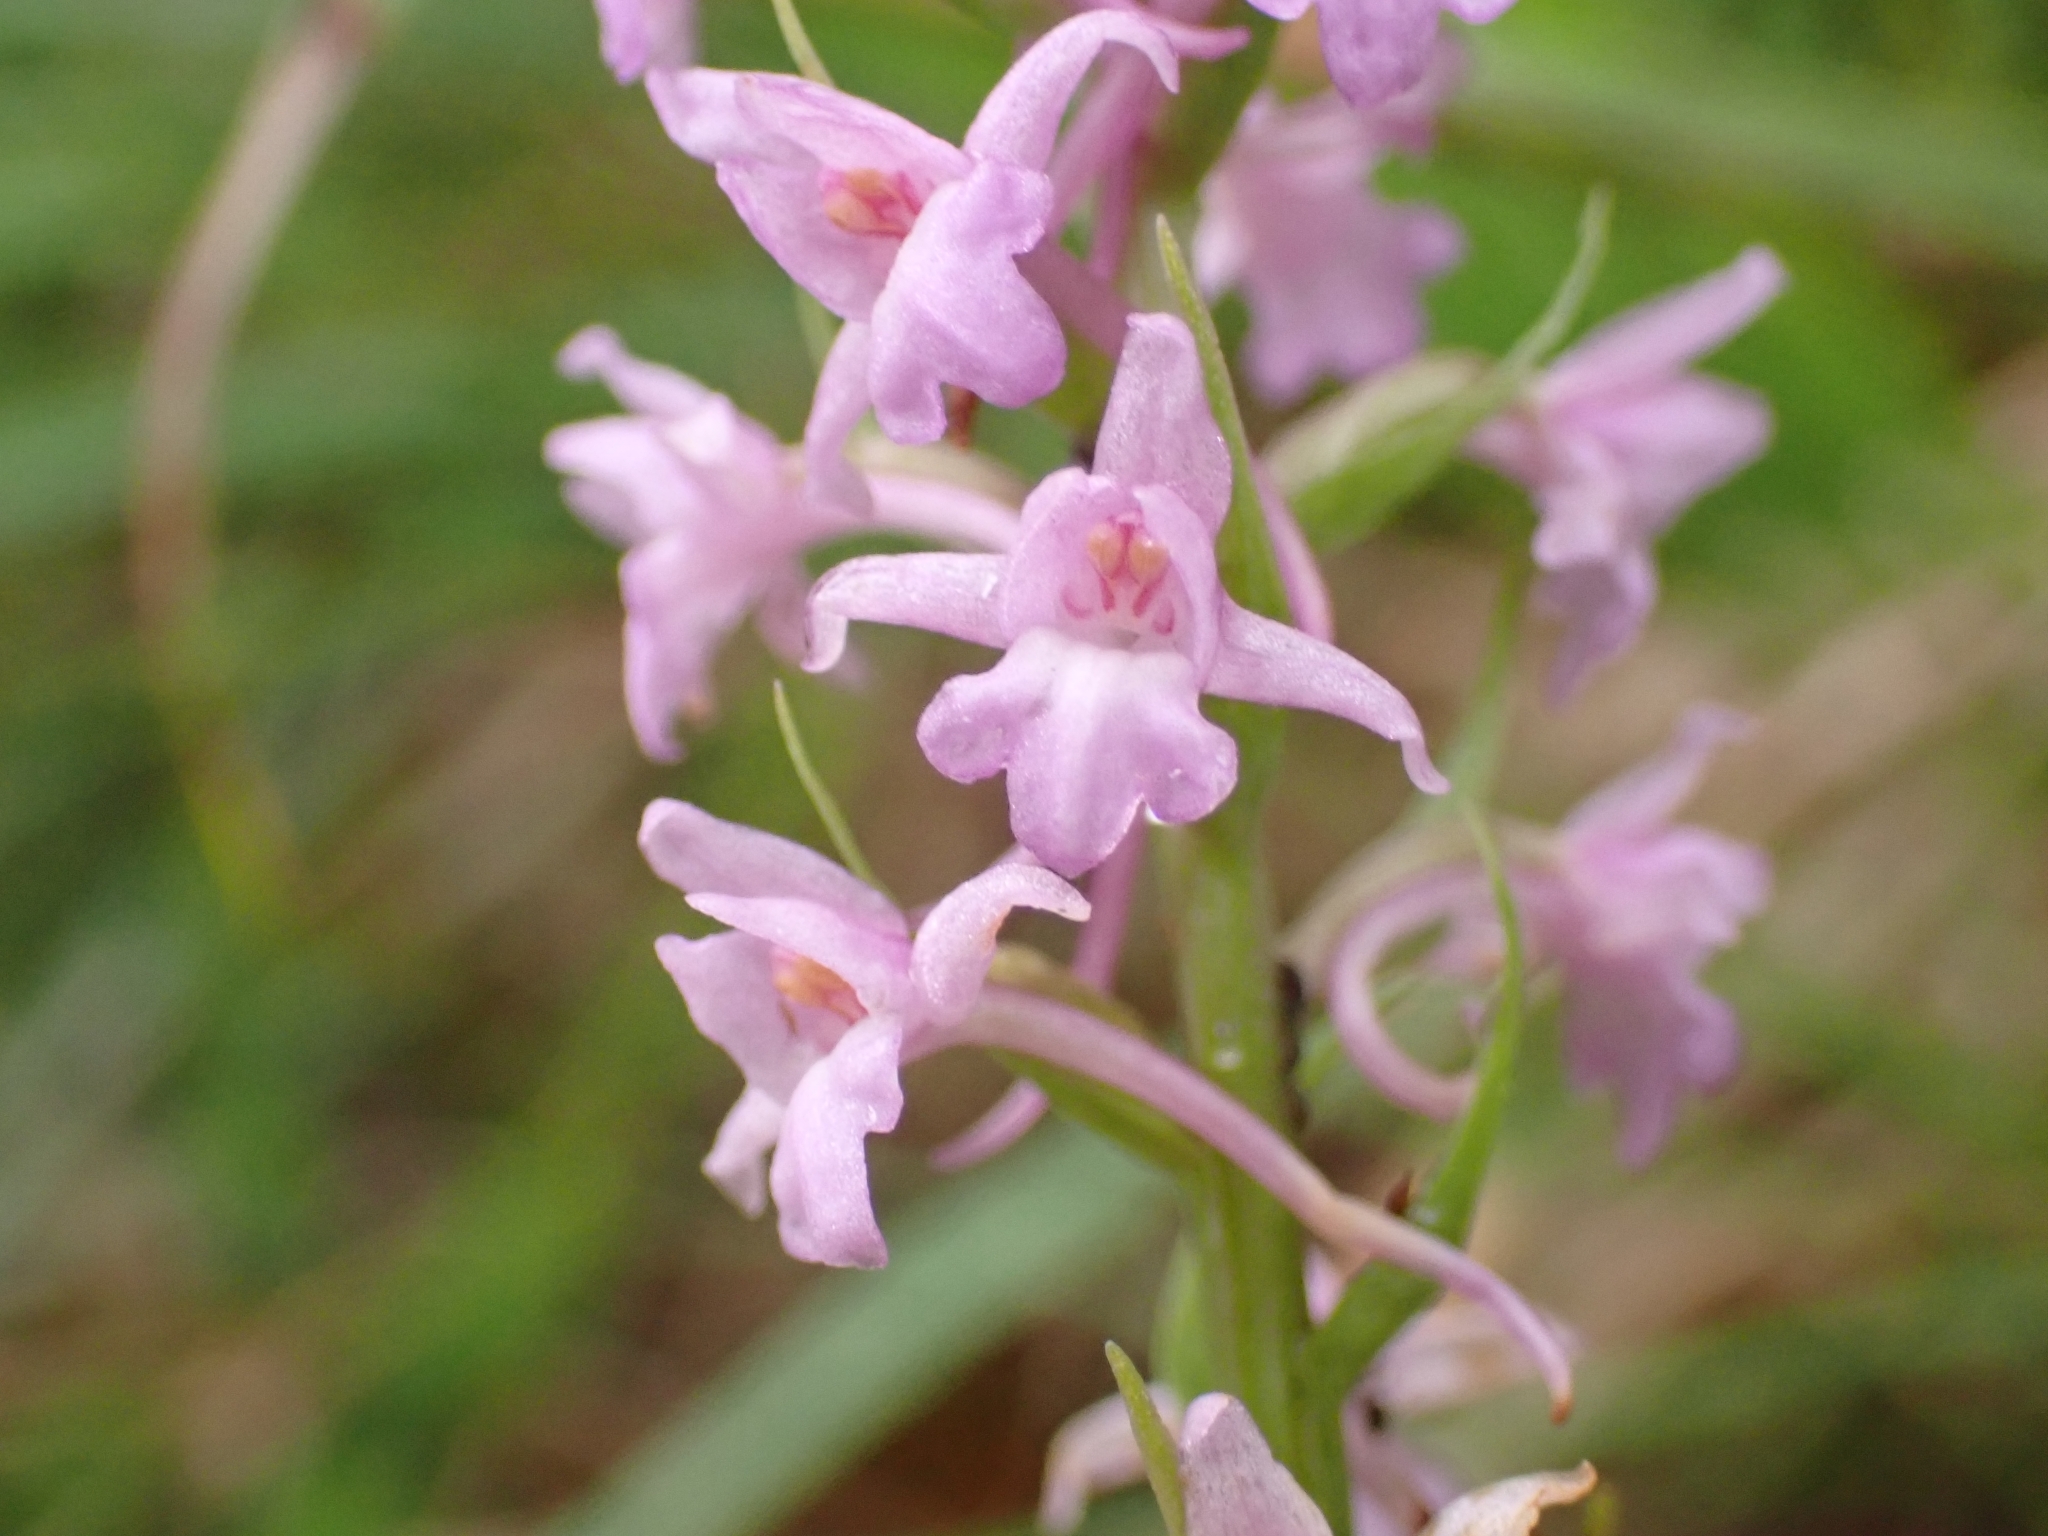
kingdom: Plantae
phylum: Tracheophyta
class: Liliopsida
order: Asparagales
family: Orchidaceae
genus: Gymnadenia
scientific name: Gymnadenia conopsea
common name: Fragrant orchid
